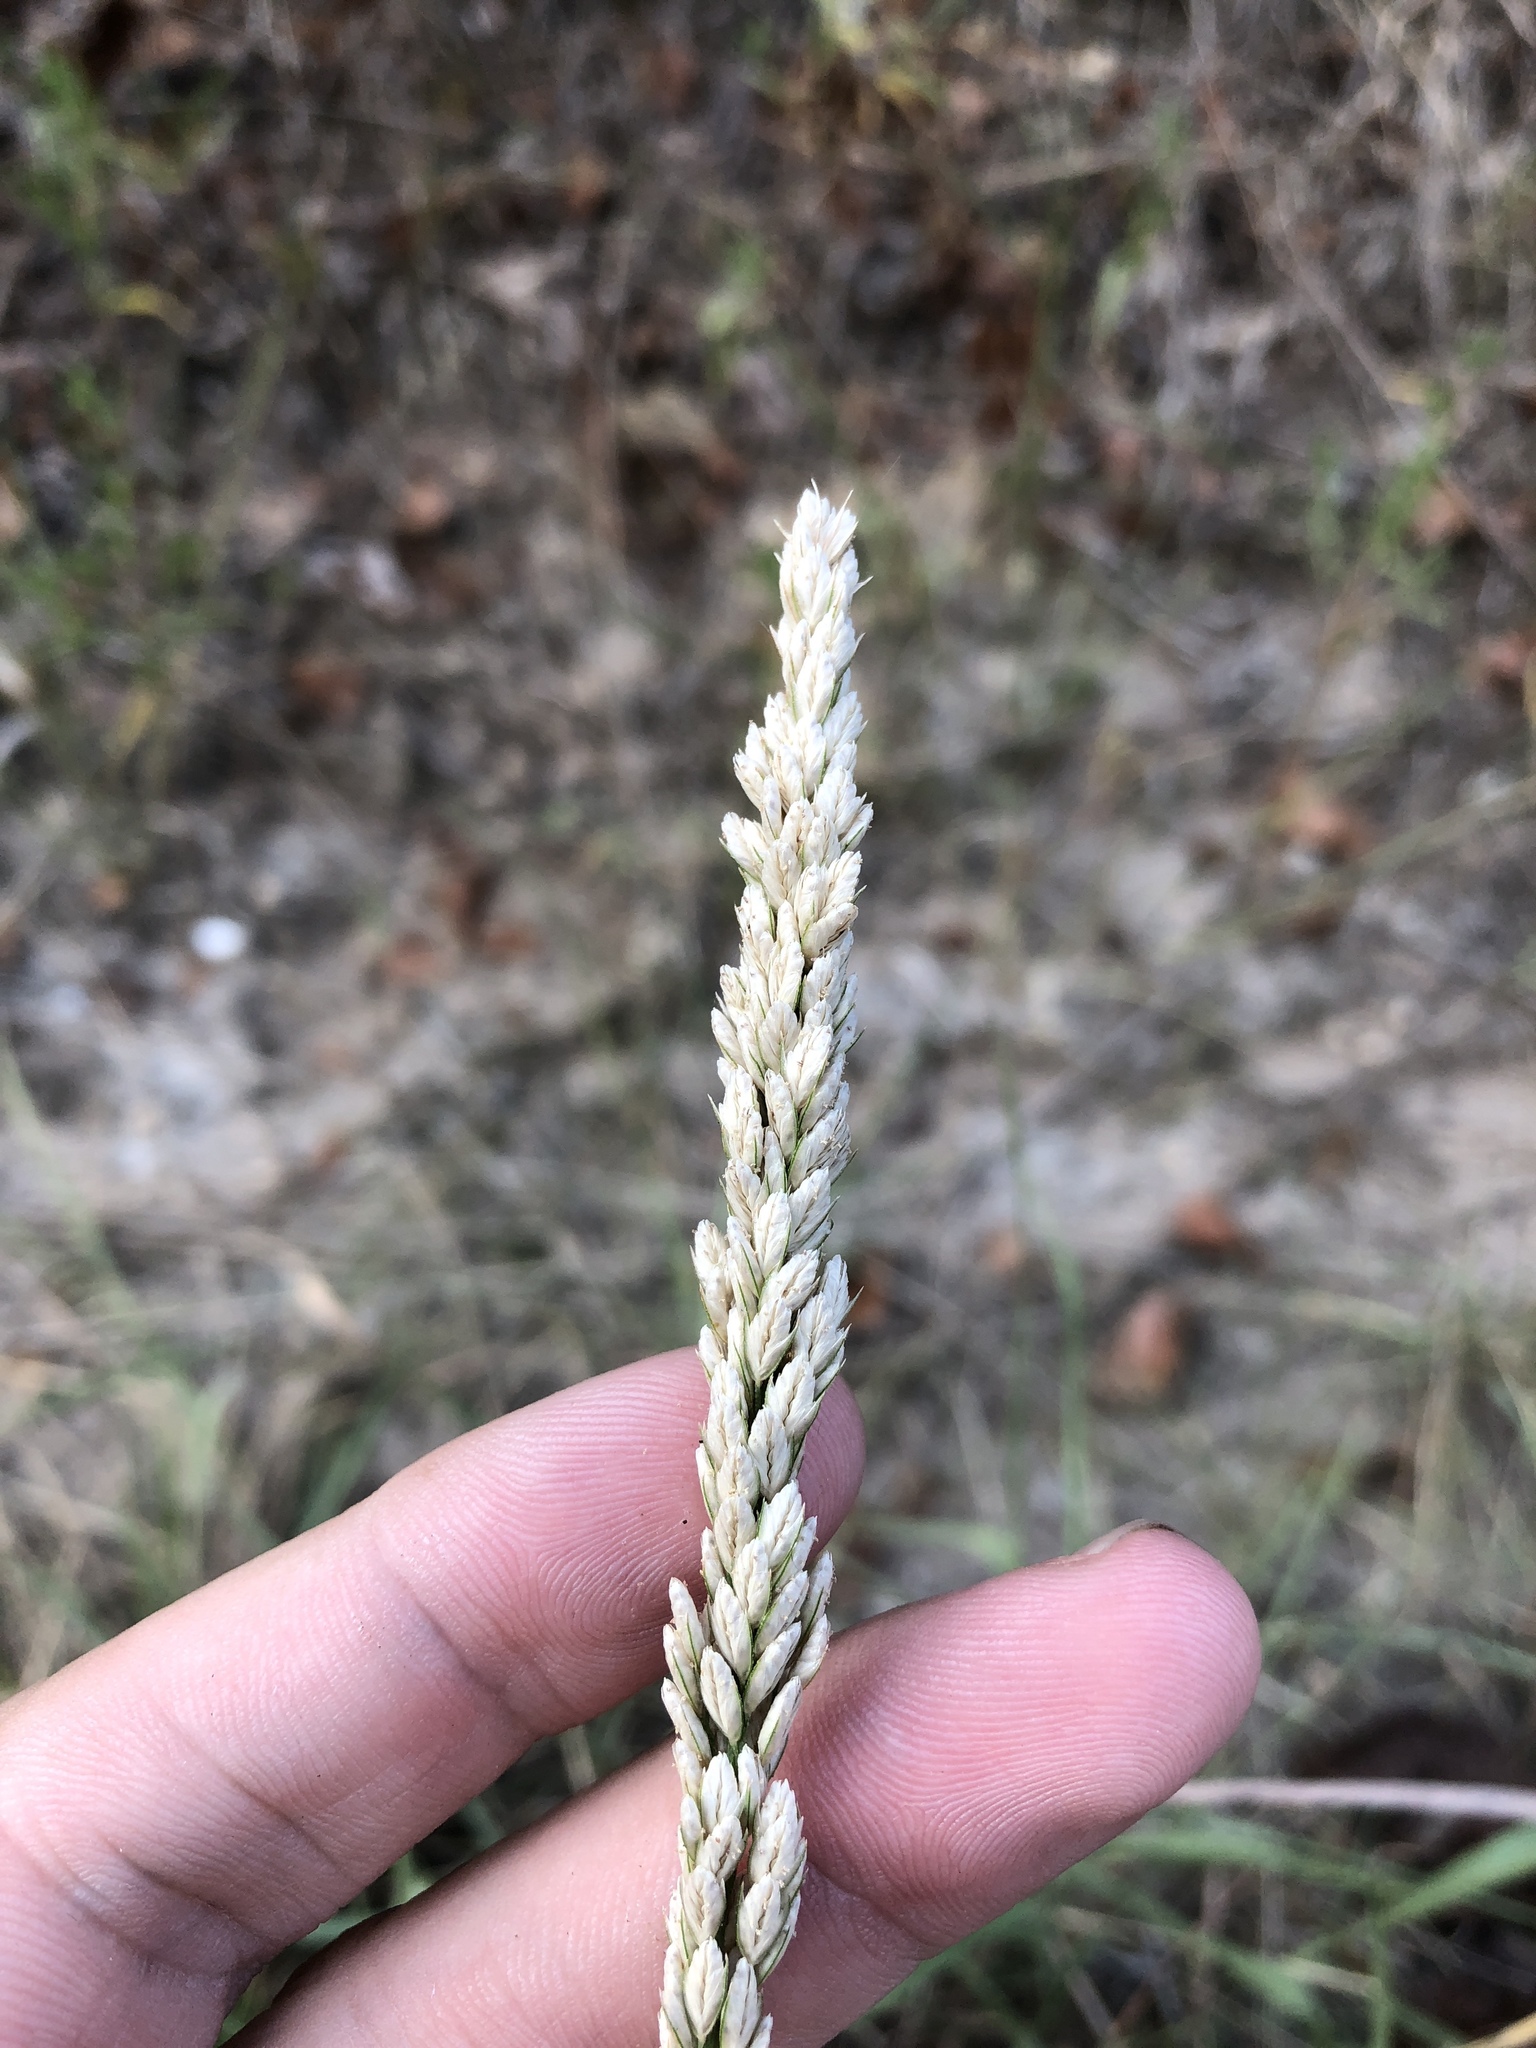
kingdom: Plantae
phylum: Tracheophyta
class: Liliopsida
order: Poales
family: Poaceae
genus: Tridens
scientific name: Tridens albescens
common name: White tridens
